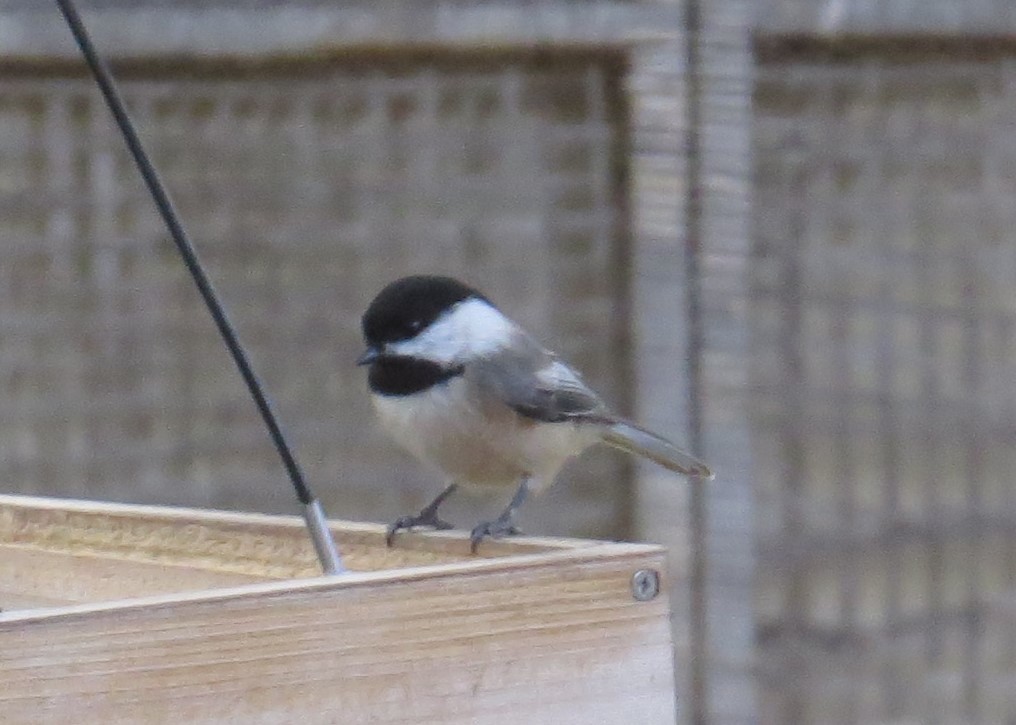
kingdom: Animalia
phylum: Chordata
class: Aves
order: Passeriformes
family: Paridae
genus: Poecile
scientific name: Poecile atricapillus
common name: Black-capped chickadee
